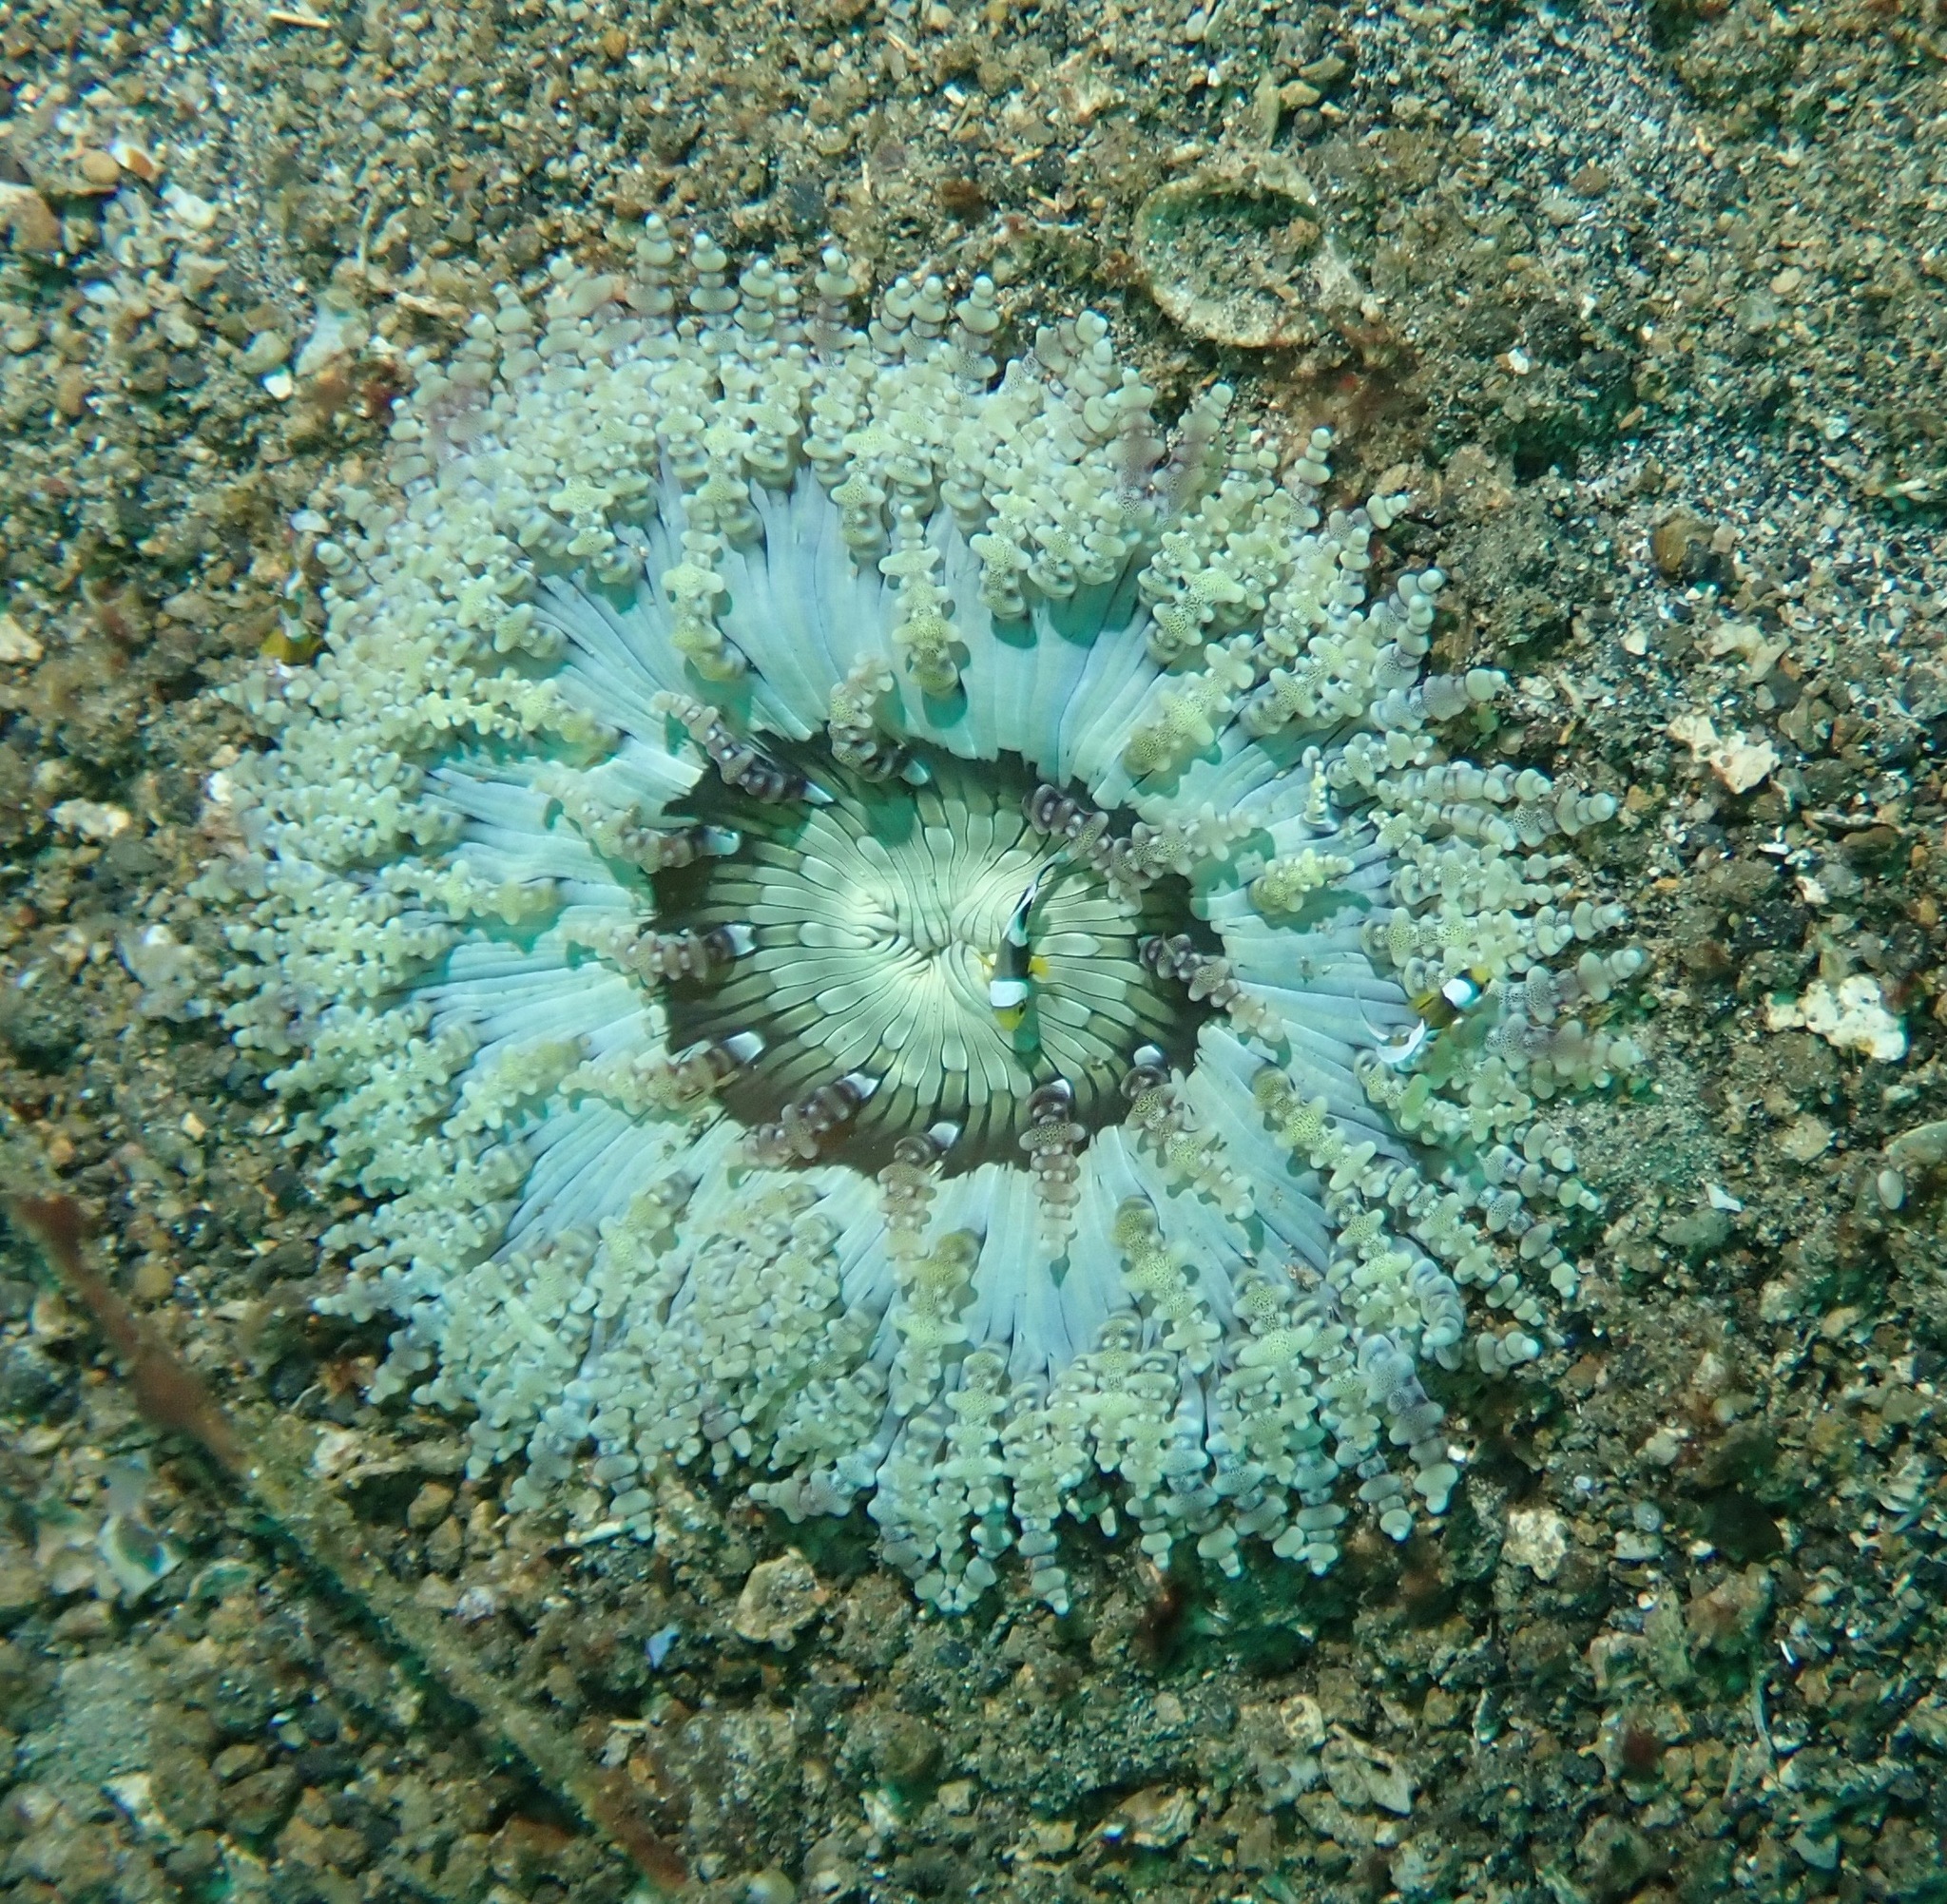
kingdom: Animalia
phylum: Cnidaria
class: Anthozoa
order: Actiniaria
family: Heteractidae
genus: Heteractis
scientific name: Heteractis aurora
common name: Beaded sea anemone
